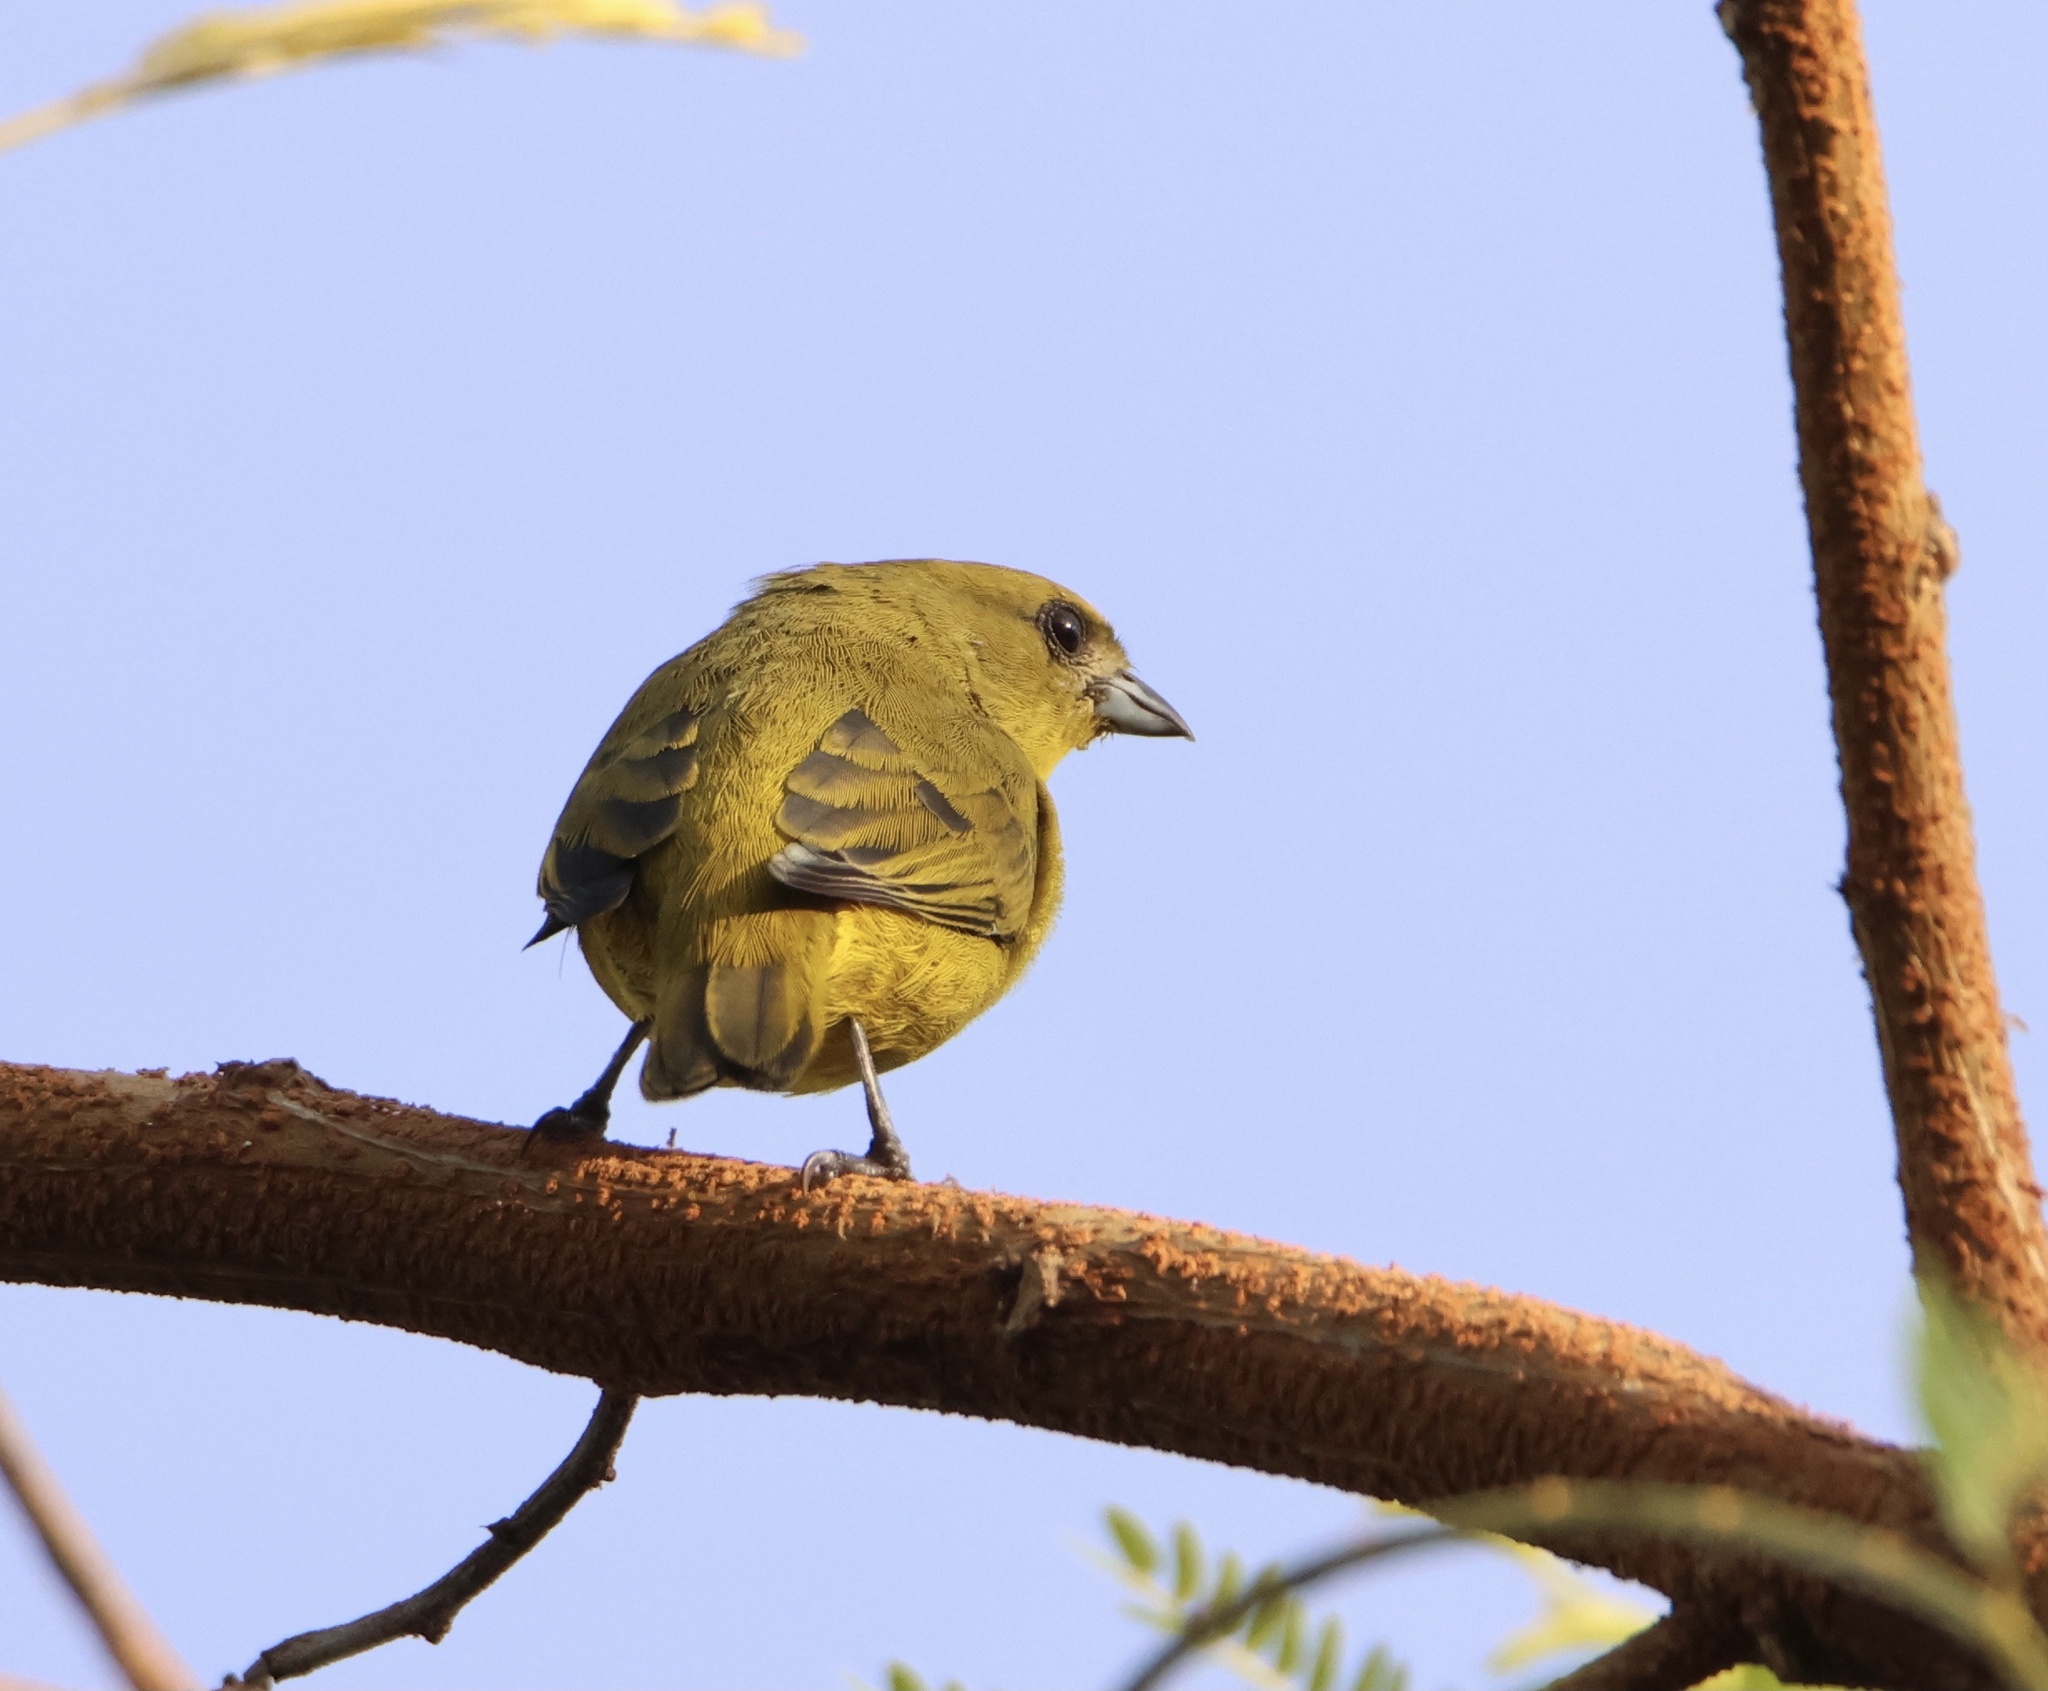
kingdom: Animalia
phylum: Chordata
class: Aves
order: Passeriformes
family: Fringillidae
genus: Euphonia
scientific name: Euphonia luteicapilla
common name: Yellow-crowned euphonia
